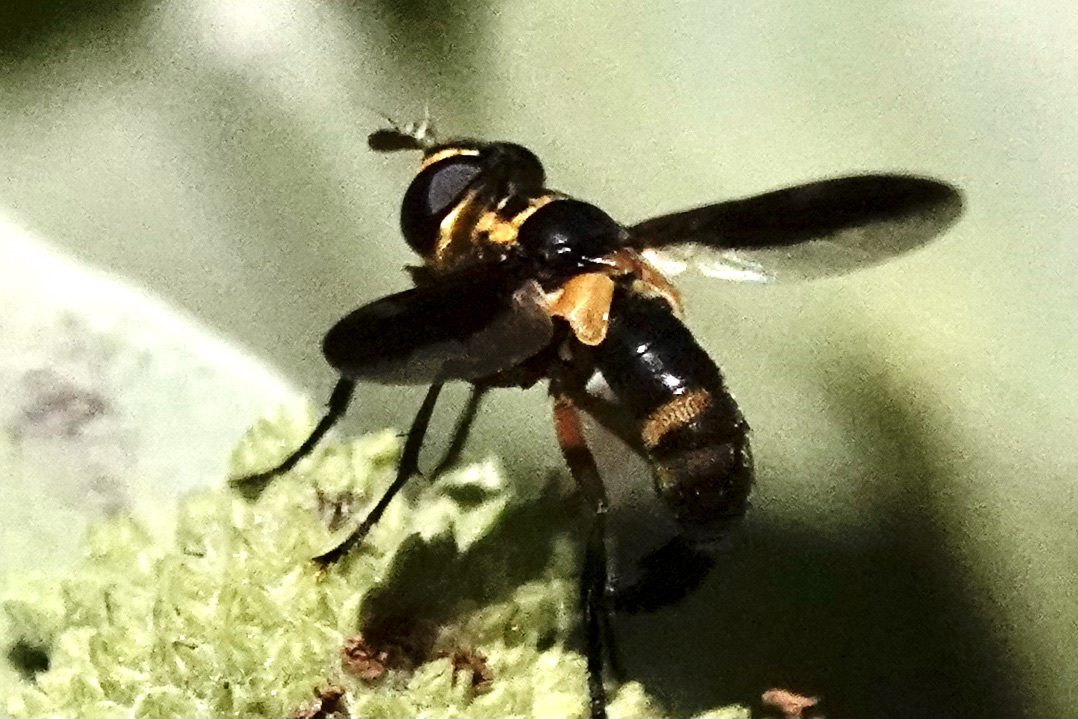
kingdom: Animalia
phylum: Arthropoda
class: Insecta
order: Diptera
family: Tachinidae
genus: Trichopoda
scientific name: Trichopoda plumipes
